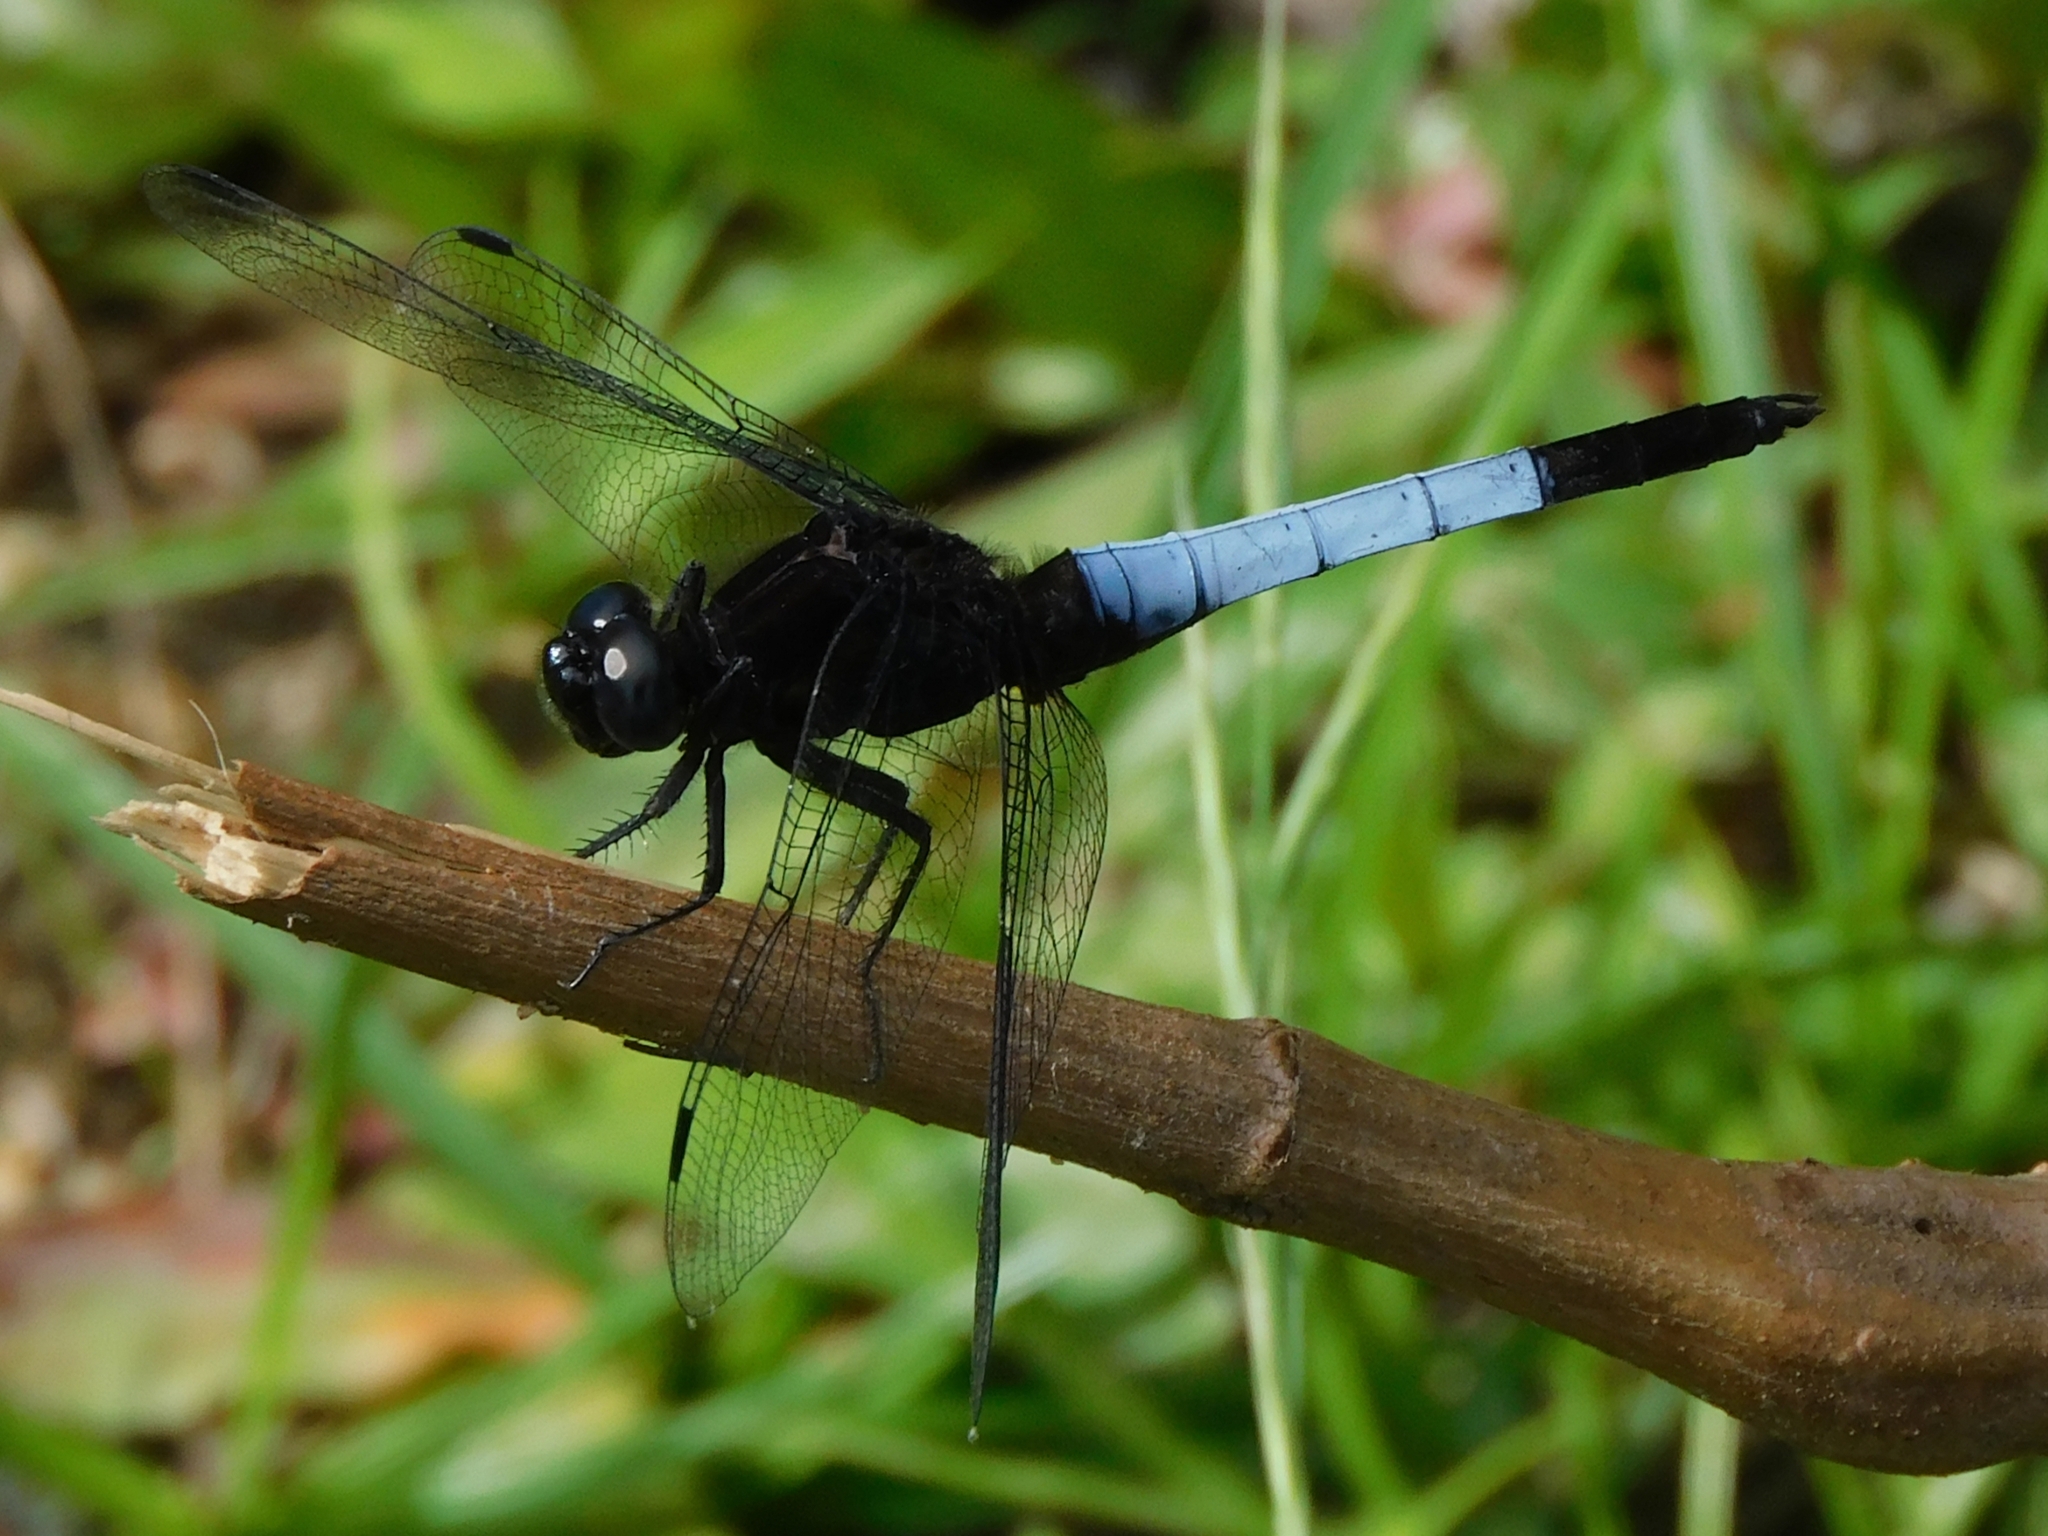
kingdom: Animalia
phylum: Arthropoda
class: Insecta
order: Odonata
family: Libellulidae
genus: Orthetrum
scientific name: Orthetrum triangulare
